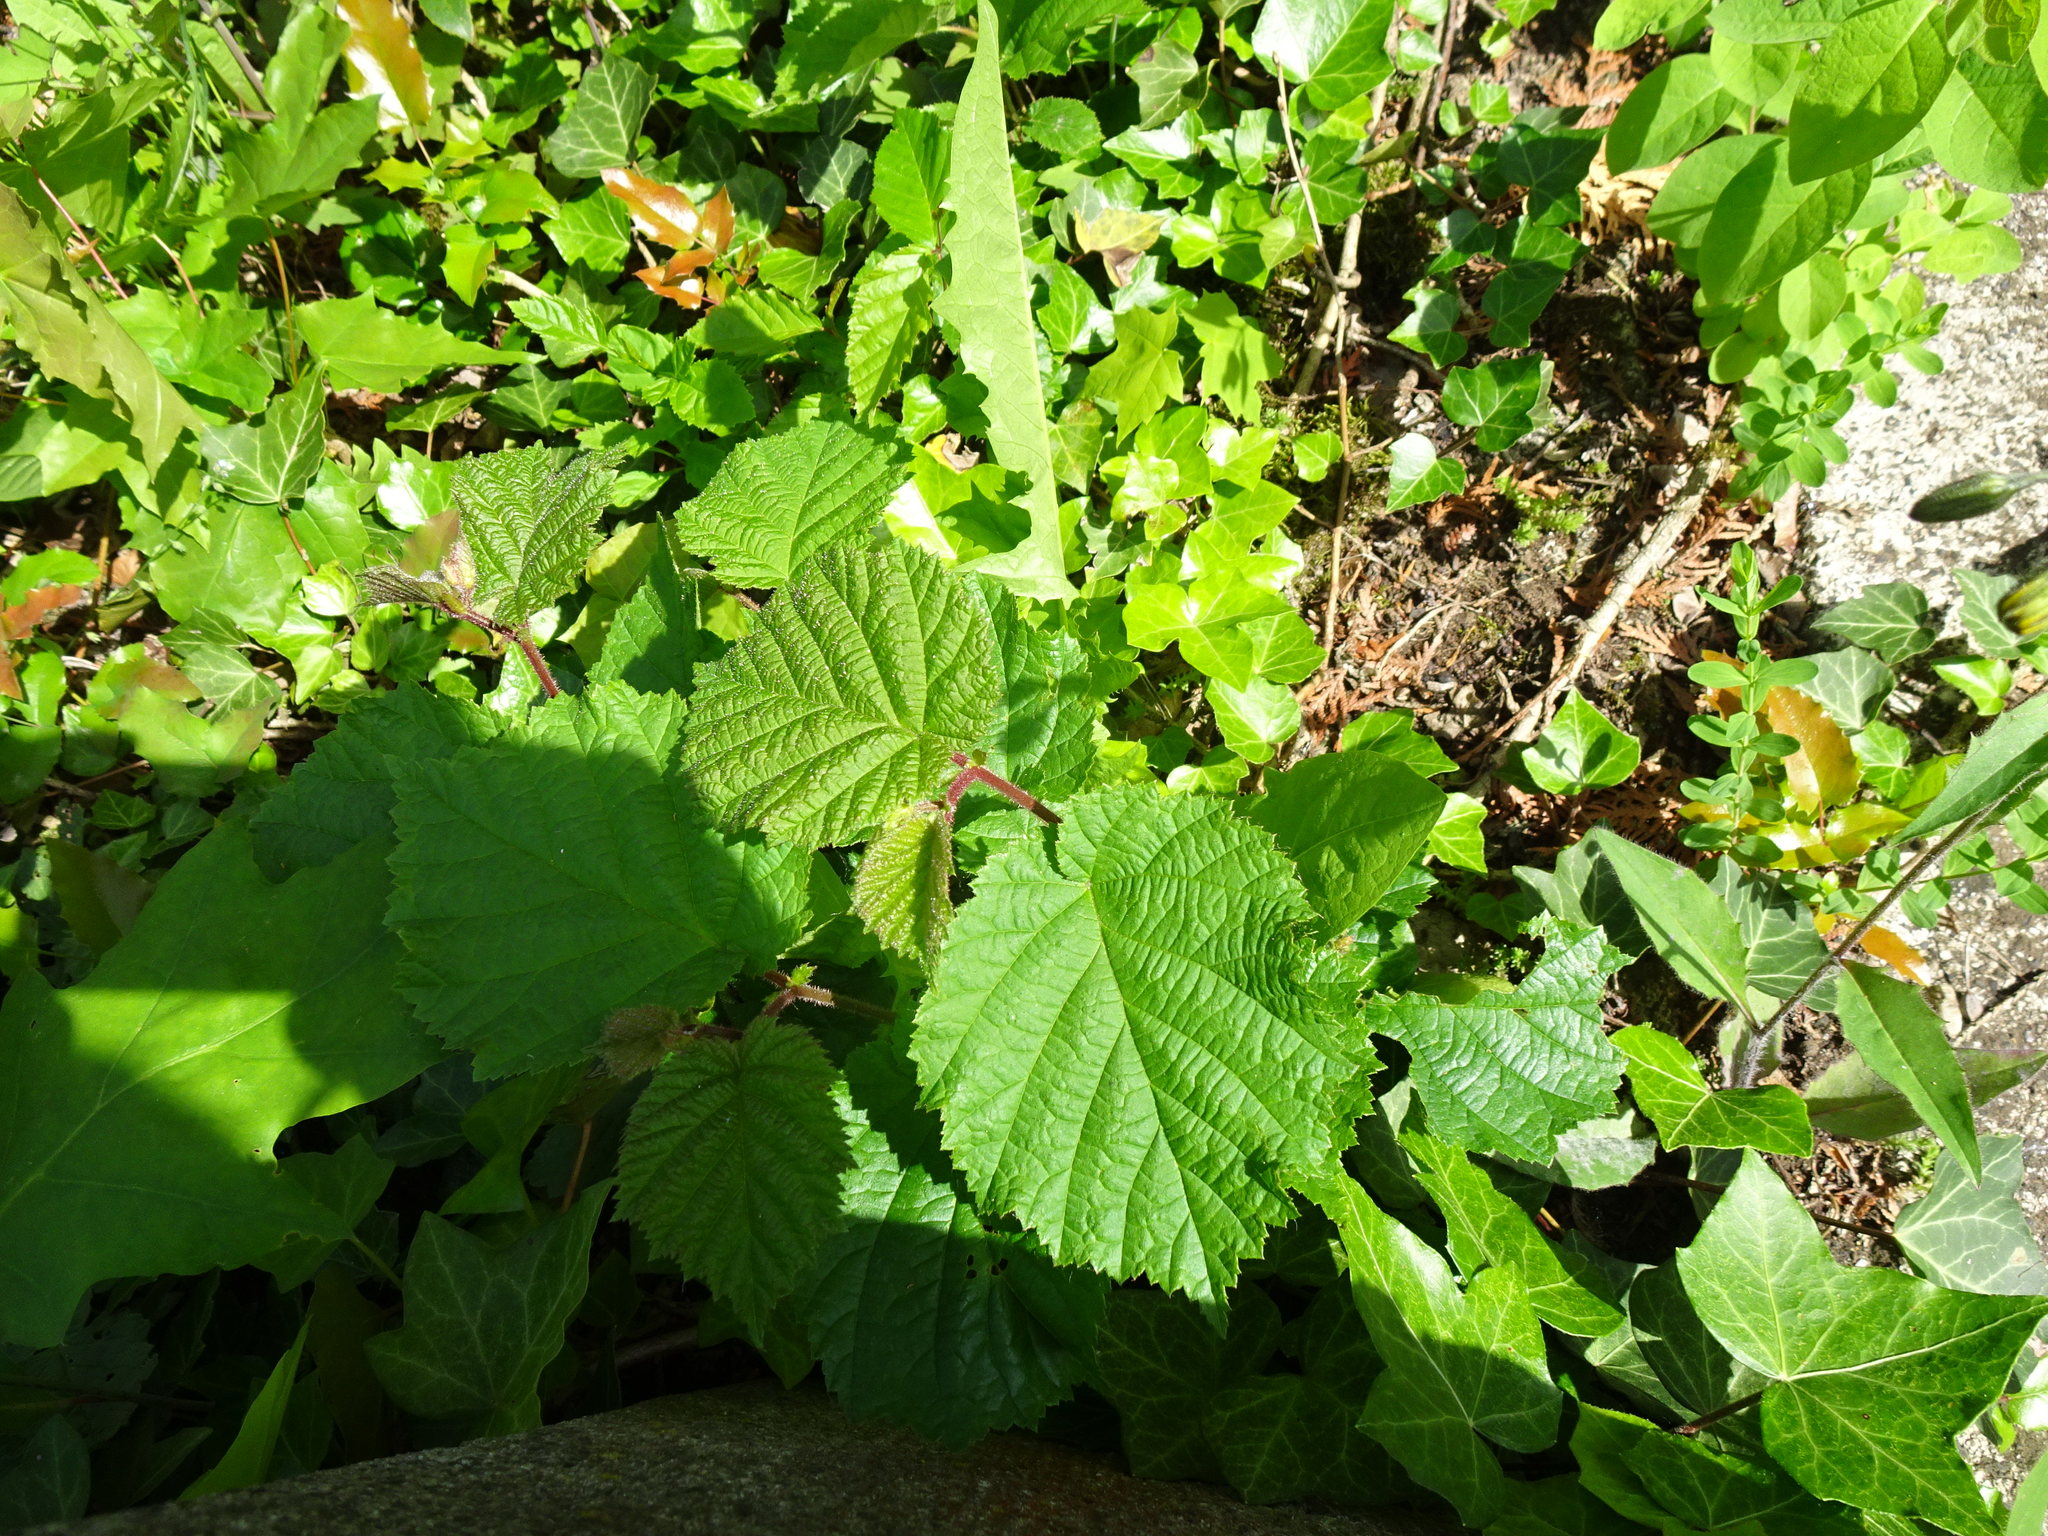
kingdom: Plantae
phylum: Tracheophyta
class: Magnoliopsida
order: Fagales
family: Betulaceae
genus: Corylus
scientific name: Corylus avellana
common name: European hazel
